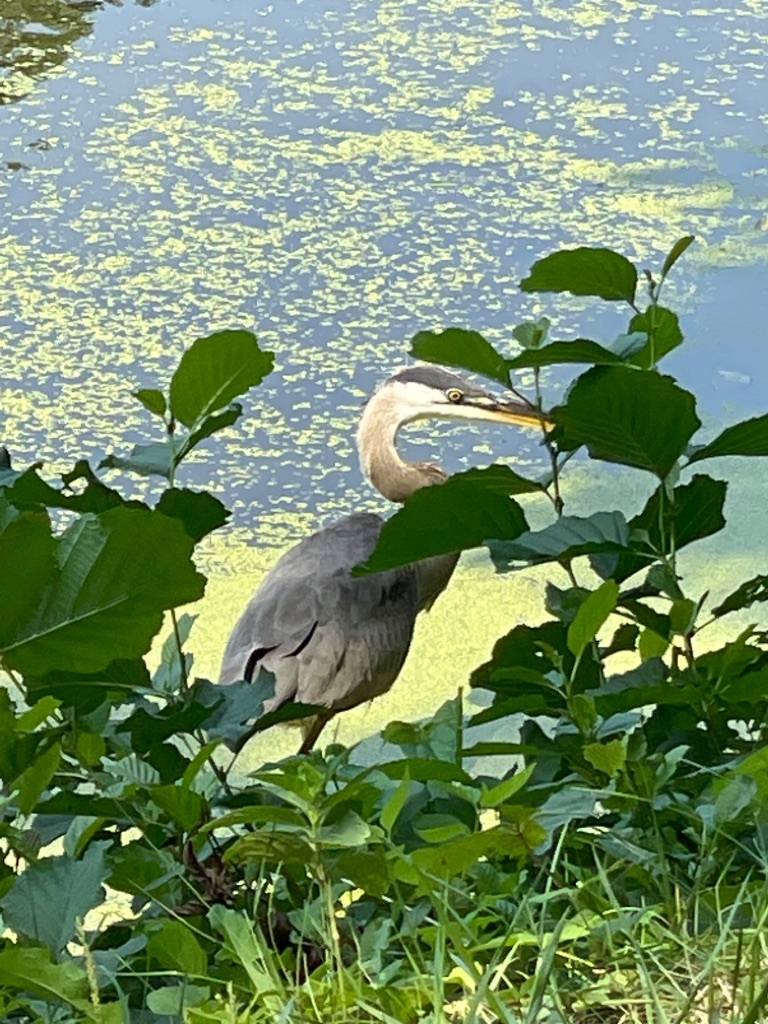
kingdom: Animalia
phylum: Chordata
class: Aves
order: Pelecaniformes
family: Ardeidae
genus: Ardea
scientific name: Ardea herodias
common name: Great blue heron
